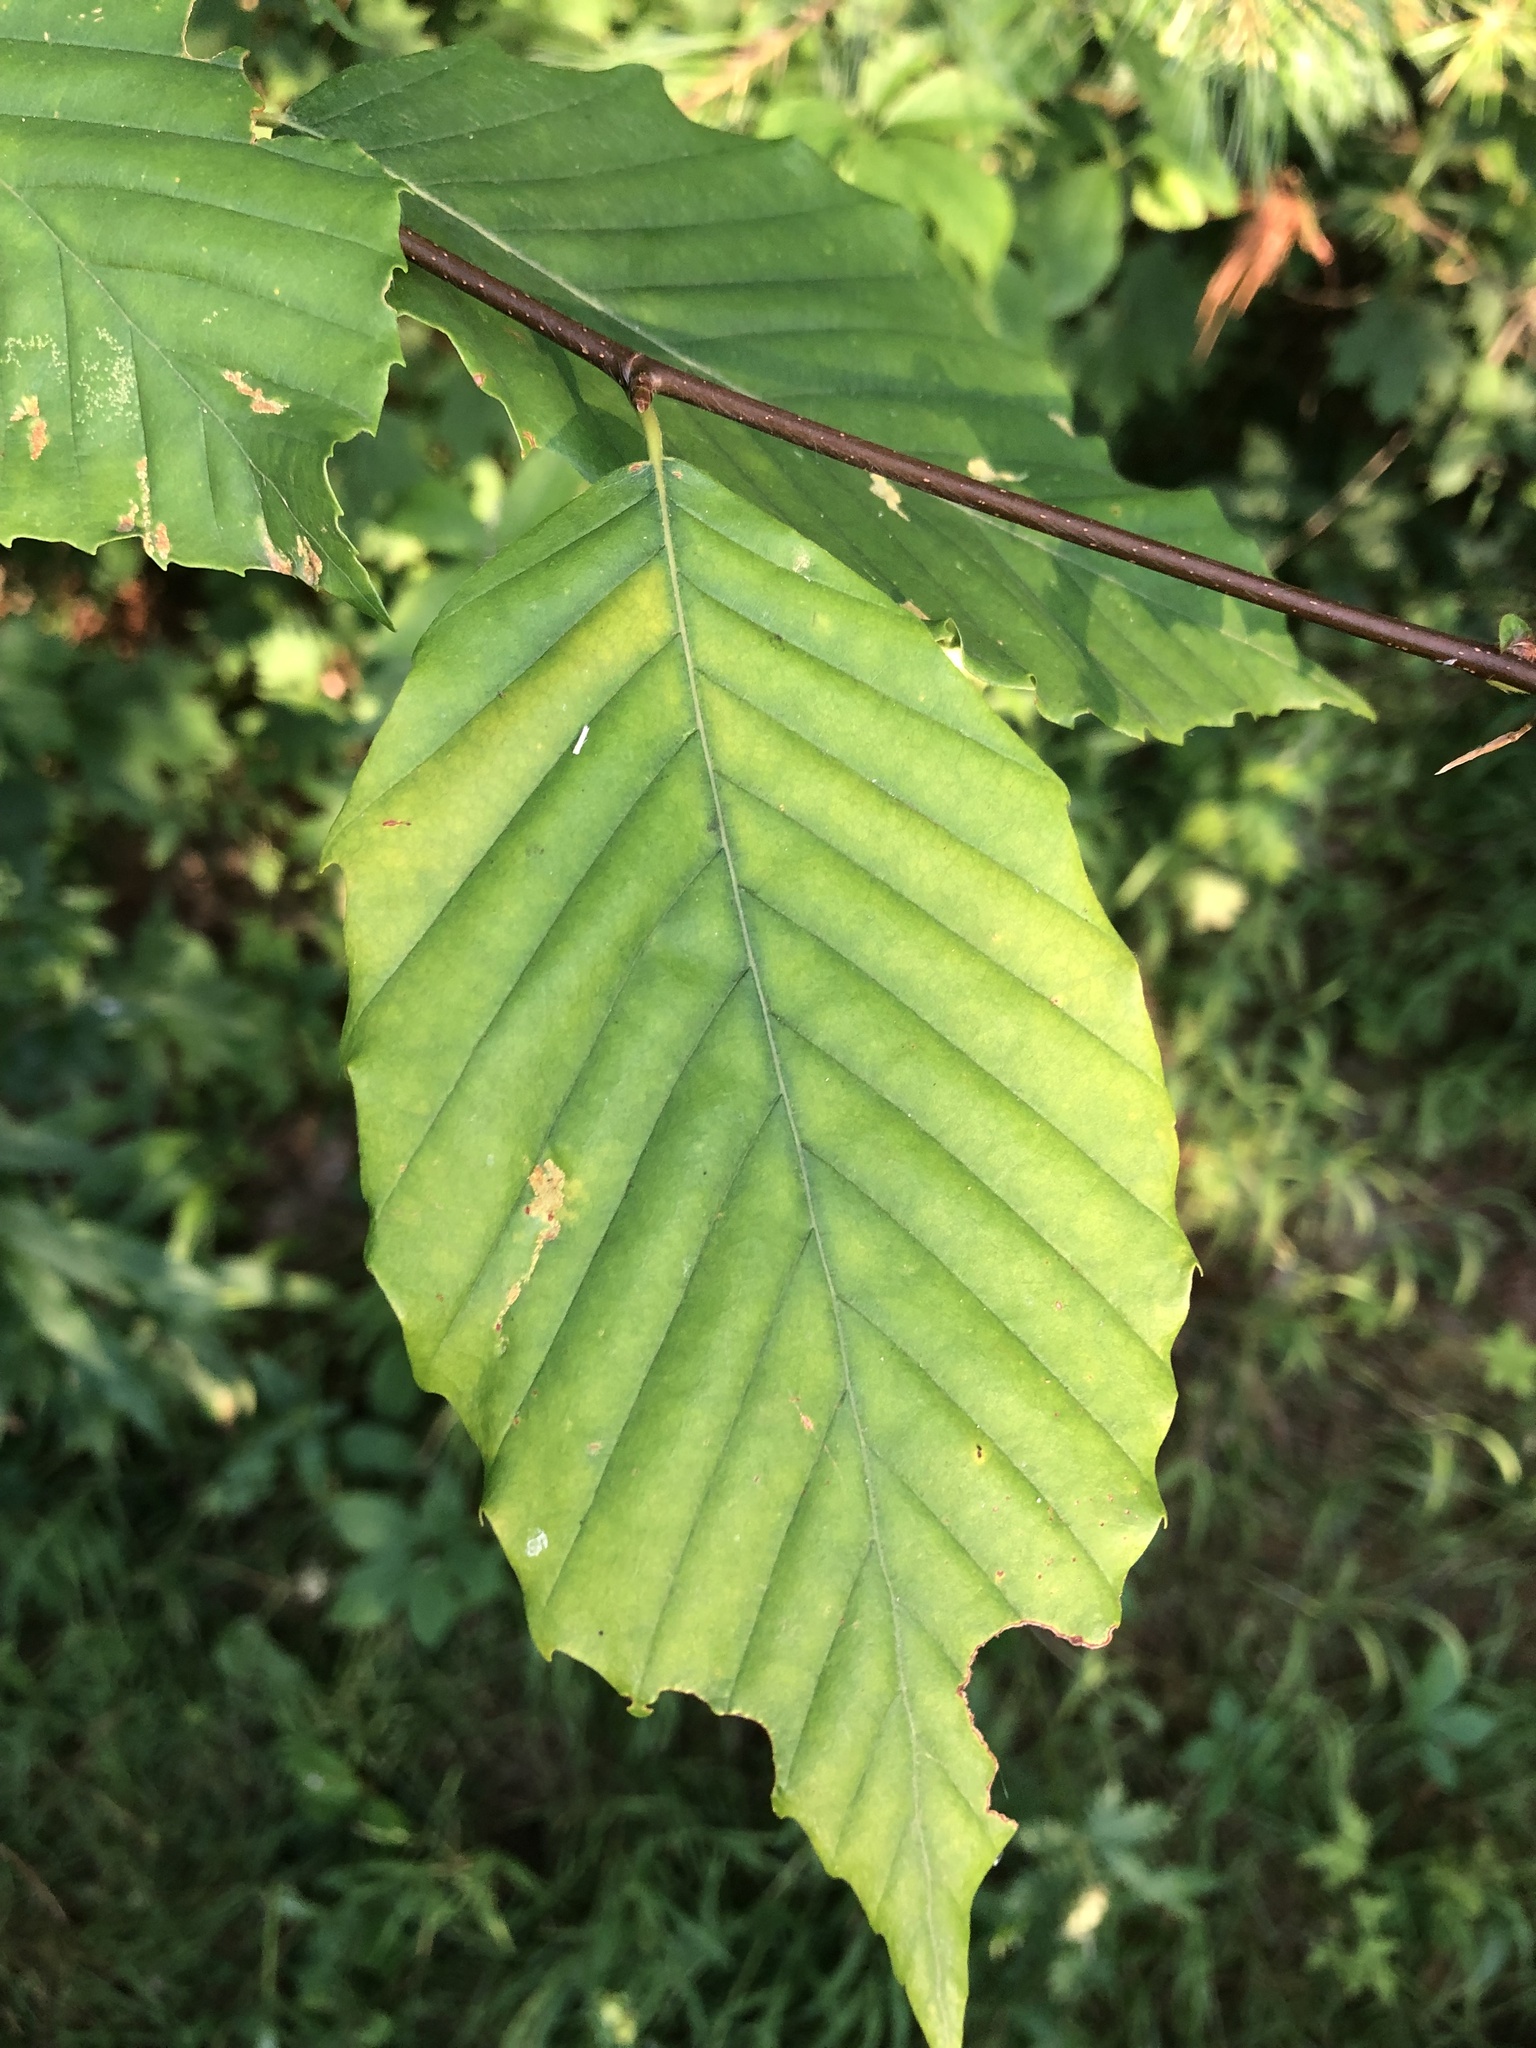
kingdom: Plantae
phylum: Tracheophyta
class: Magnoliopsida
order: Fagales
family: Fagaceae
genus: Fagus
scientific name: Fagus grandifolia
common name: American beech
